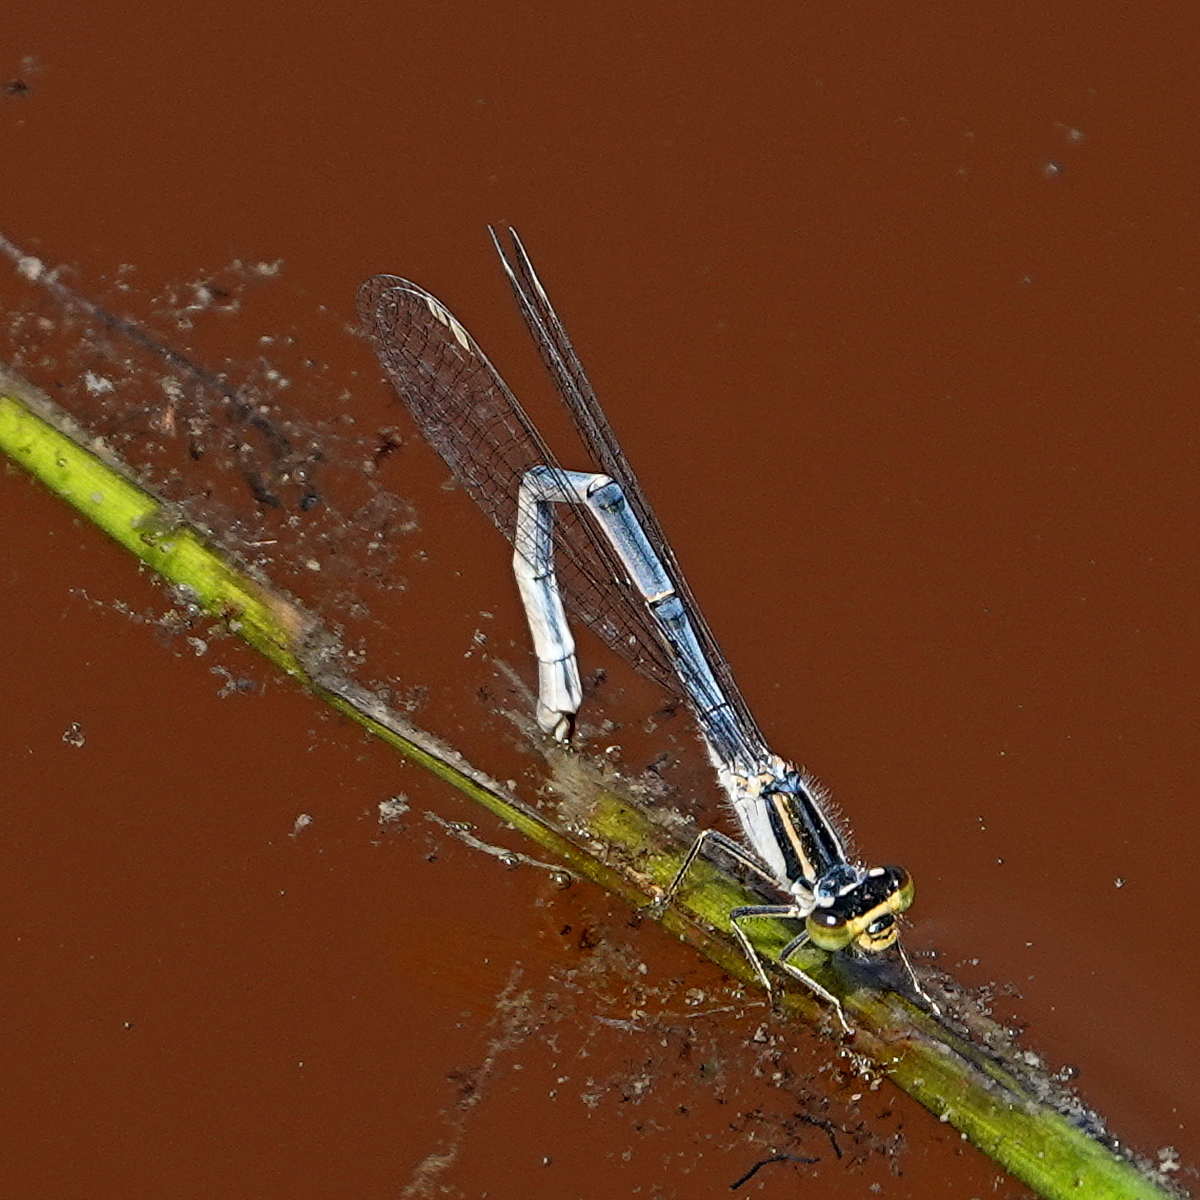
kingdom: Animalia
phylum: Arthropoda
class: Insecta
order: Odonata
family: Coenagrionidae
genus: Ischnura
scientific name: Ischnura heterosticta
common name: Common bluetail
